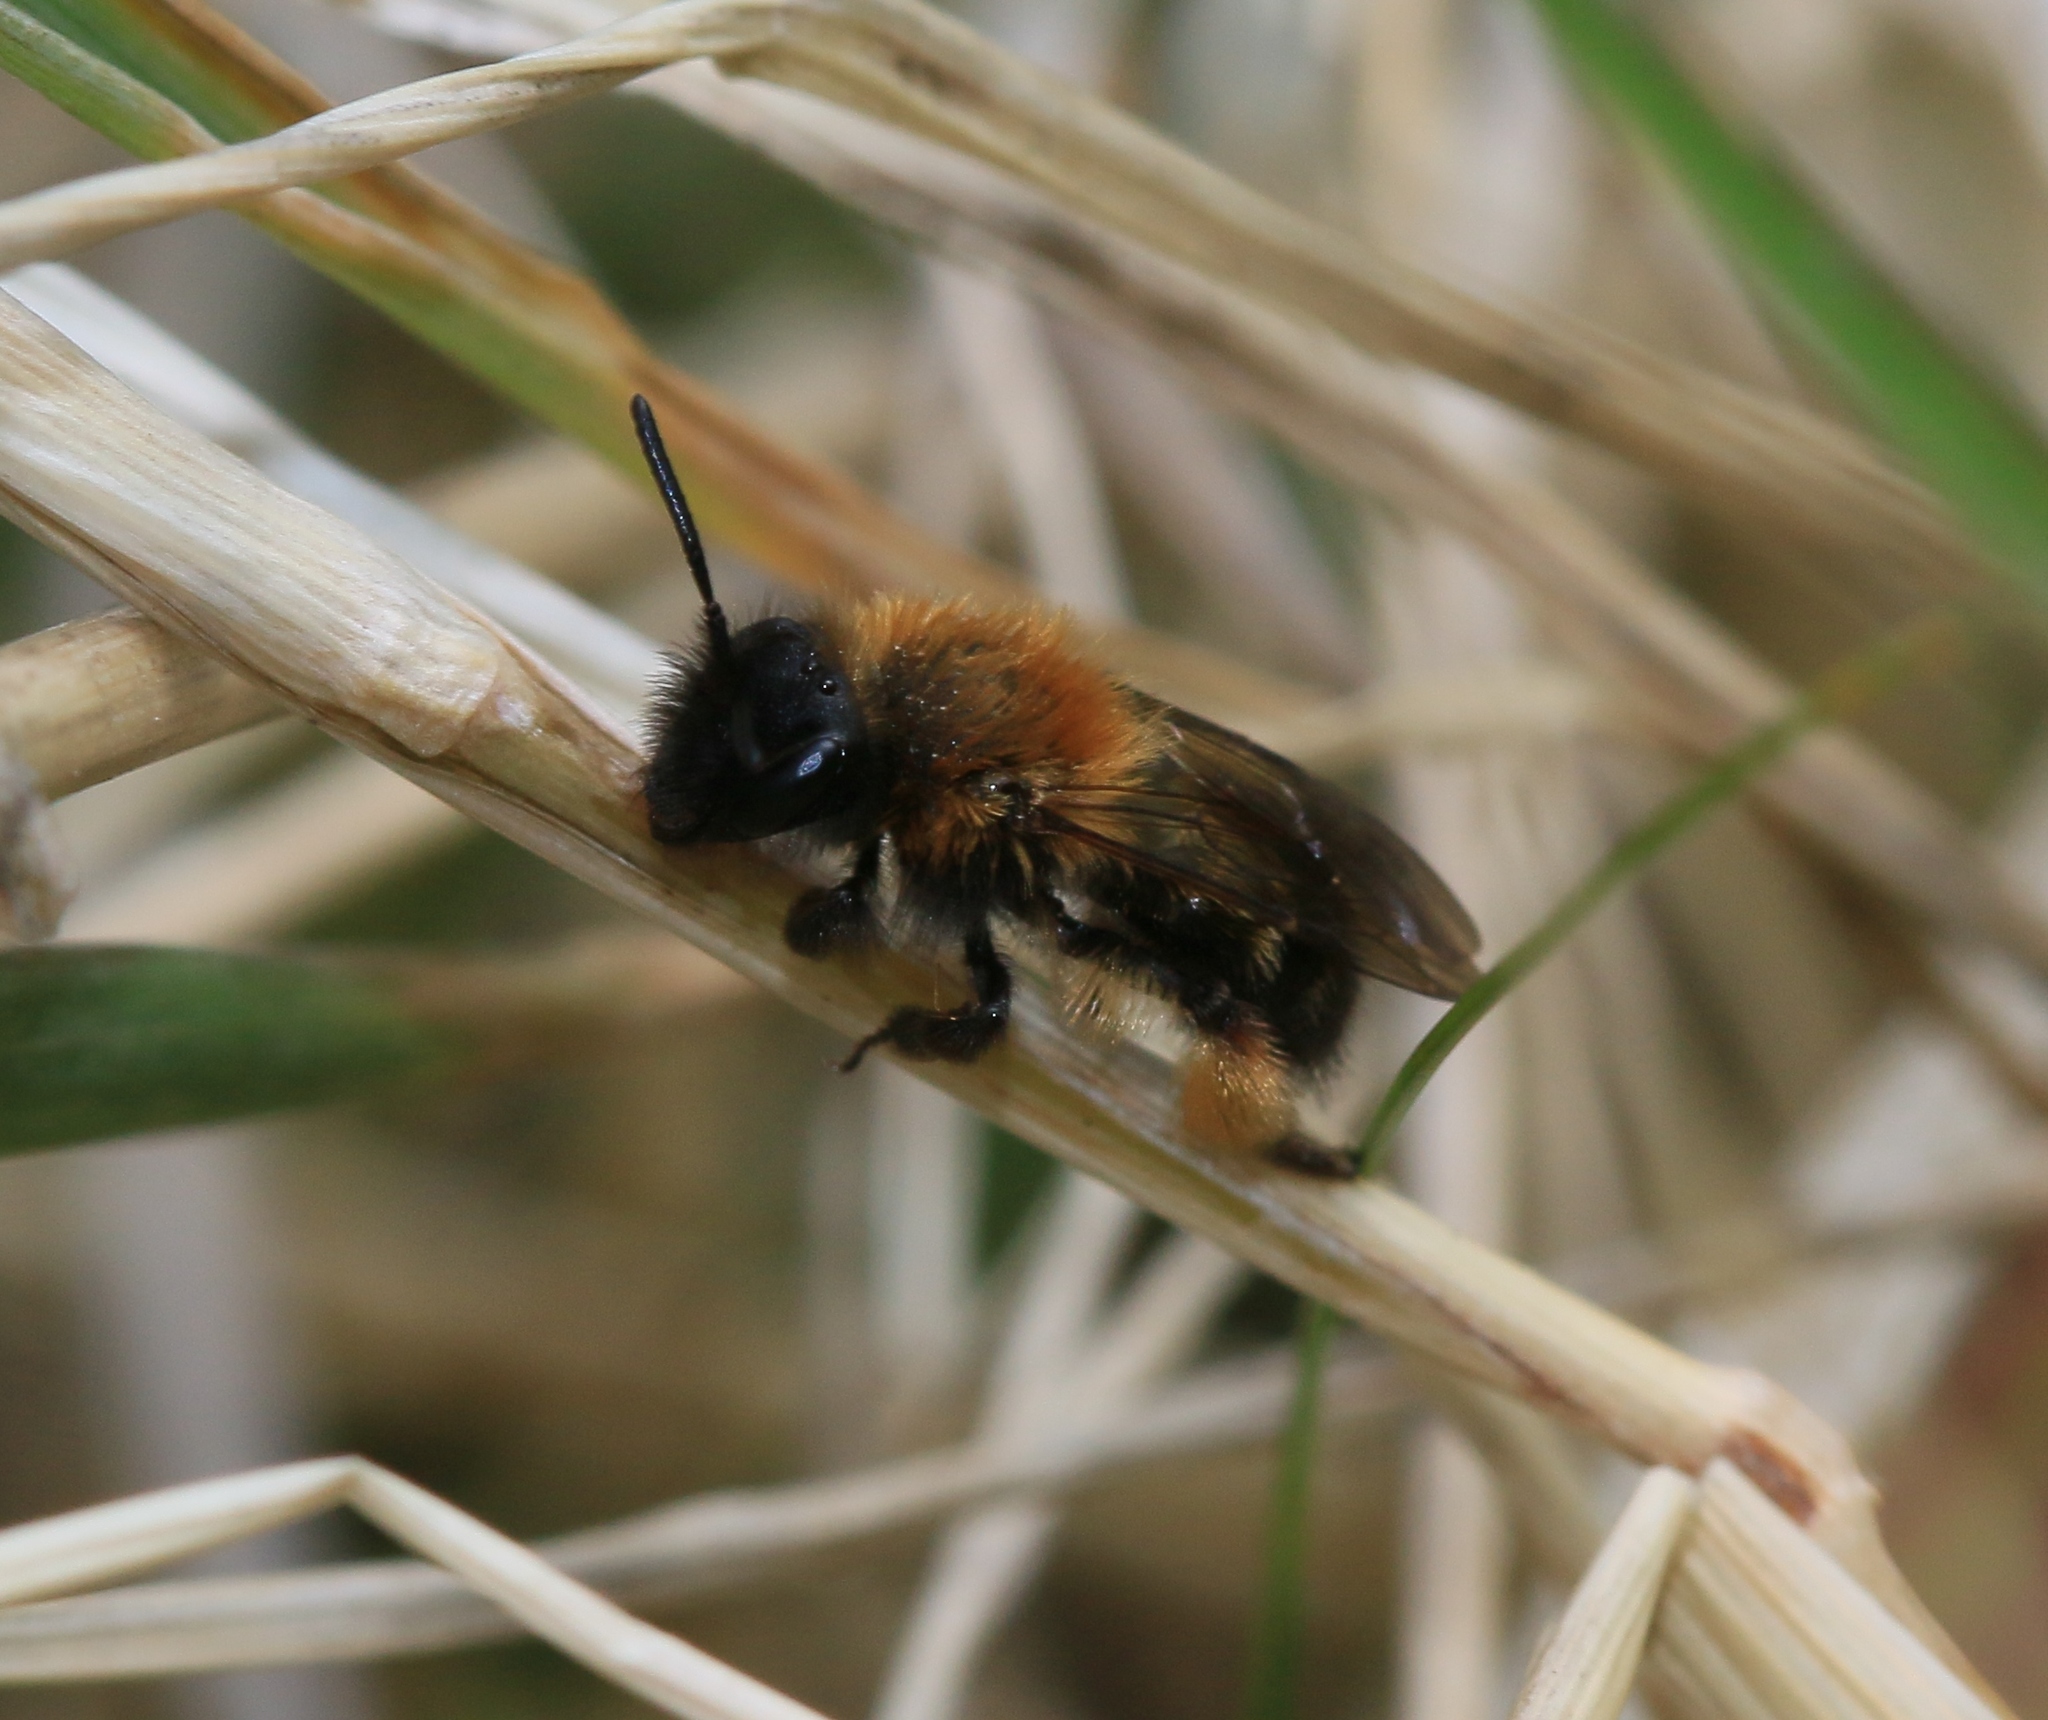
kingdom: Animalia
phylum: Arthropoda
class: Insecta
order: Hymenoptera
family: Andrenidae
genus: Andrena
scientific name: Andrena bicolor
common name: Gwynne's mining bee
